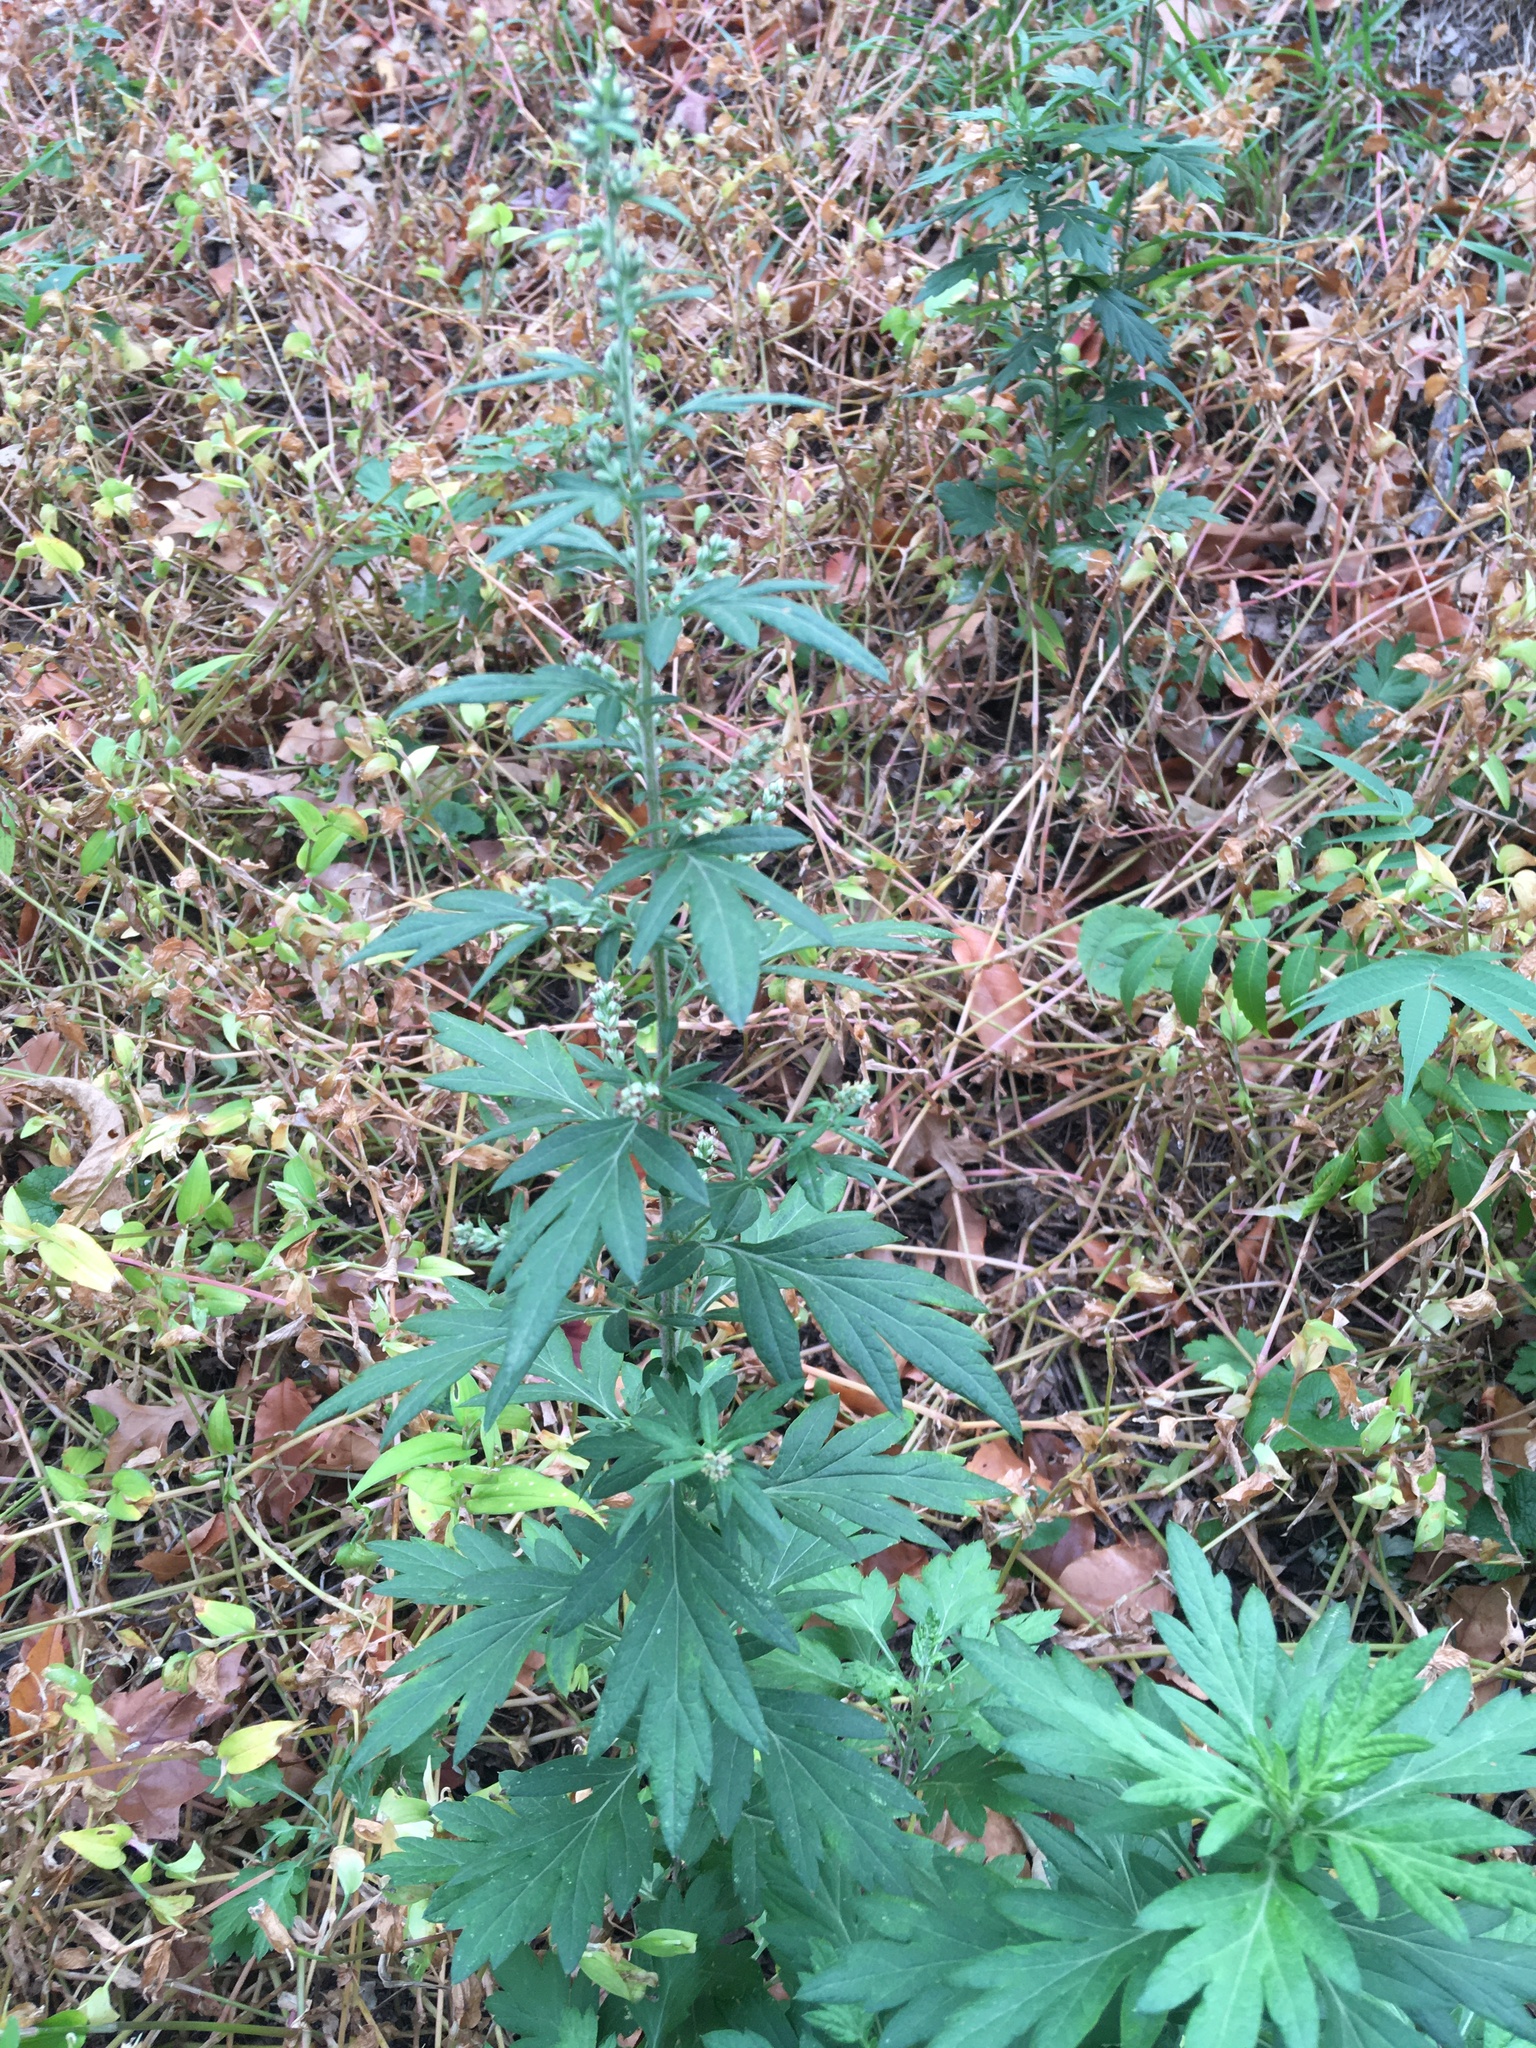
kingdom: Plantae
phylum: Tracheophyta
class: Magnoliopsida
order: Asterales
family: Asteraceae
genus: Artemisia
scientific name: Artemisia vulgaris
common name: Mugwort
